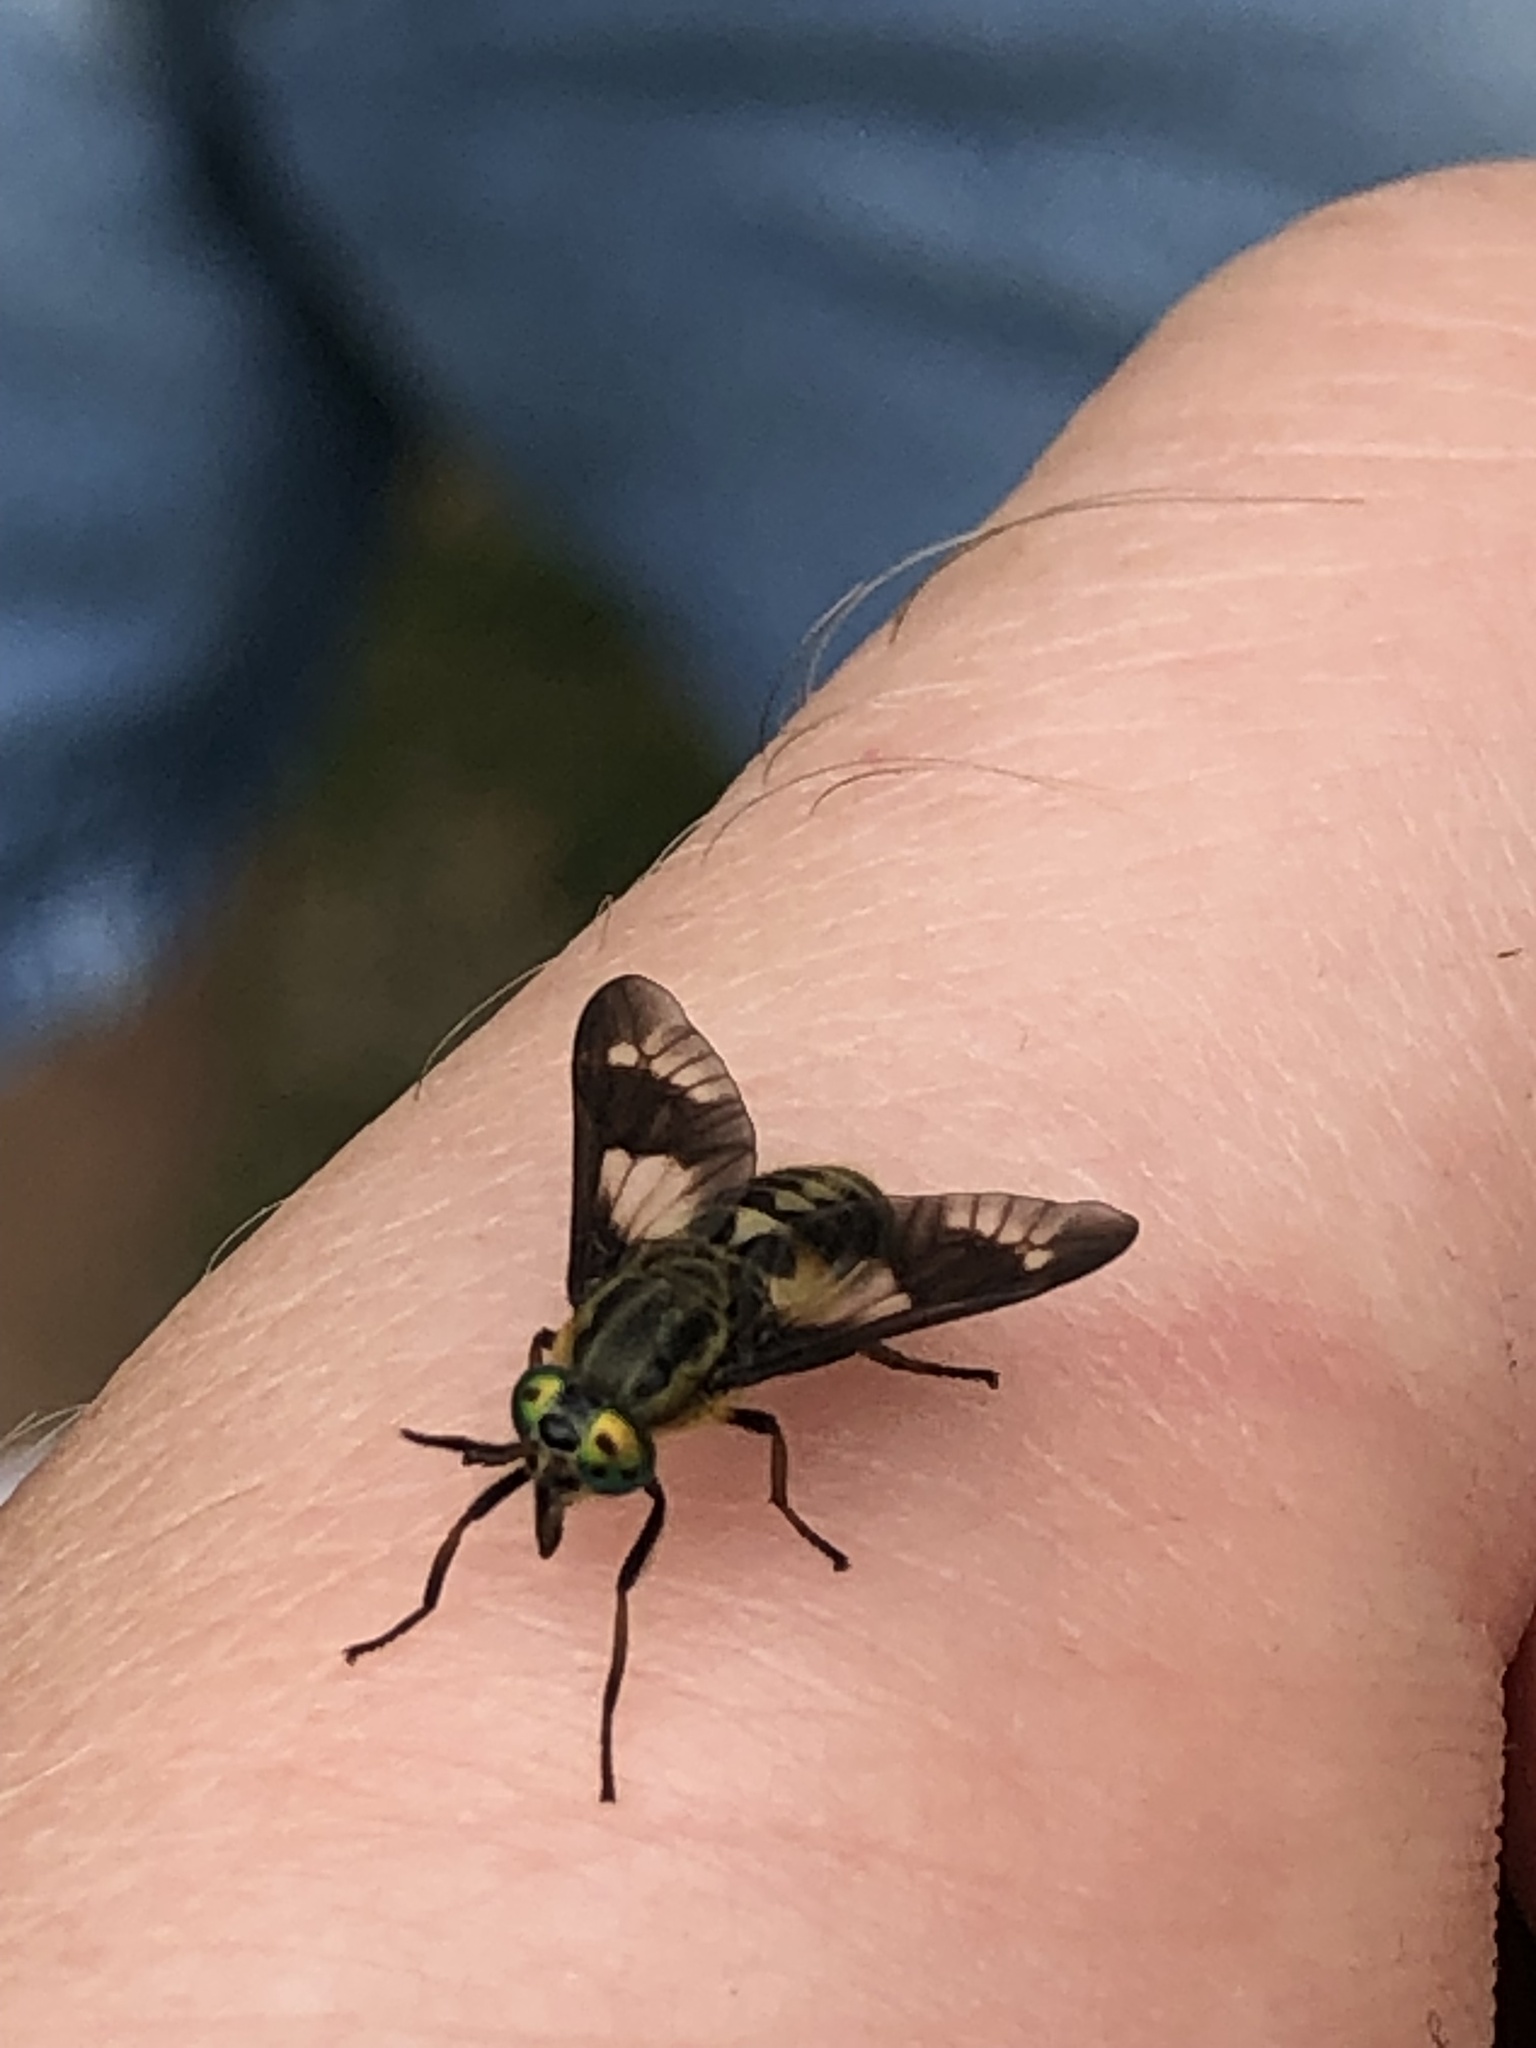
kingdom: Animalia
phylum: Arthropoda
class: Insecta
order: Diptera
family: Tabanidae
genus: Chrysops
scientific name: Chrysops relictus
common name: Twin-lobed deerfly
